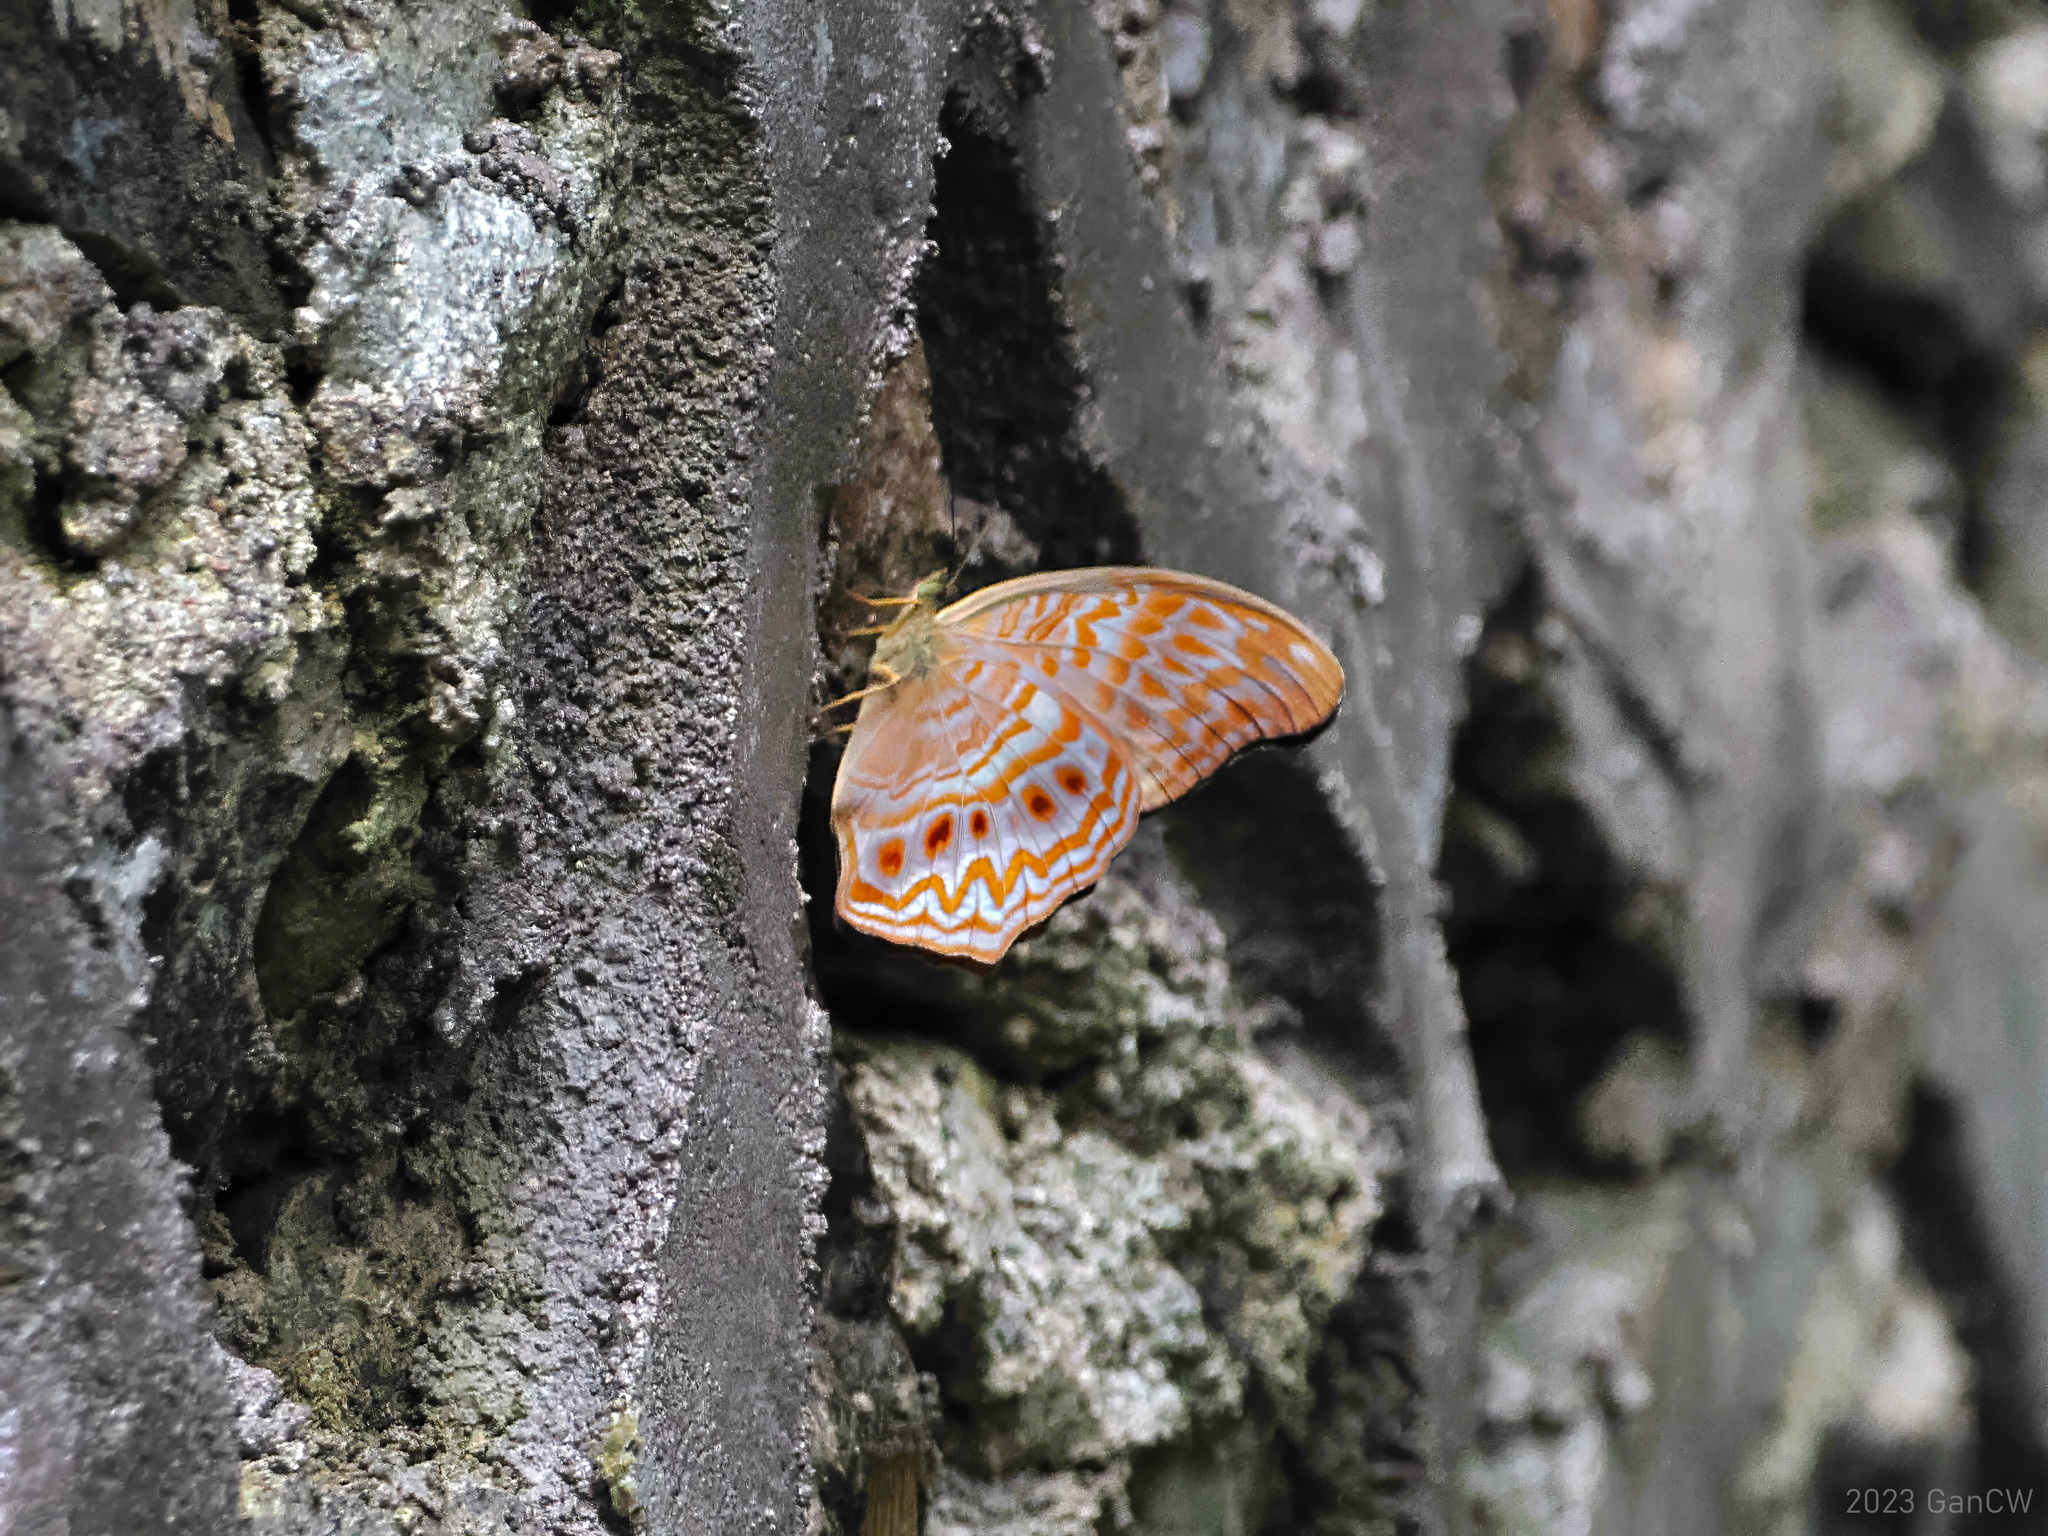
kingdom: Animalia
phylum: Arthropoda
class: Insecta
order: Lepidoptera
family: Nymphalidae
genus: Terinos
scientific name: Terinos taxiles
